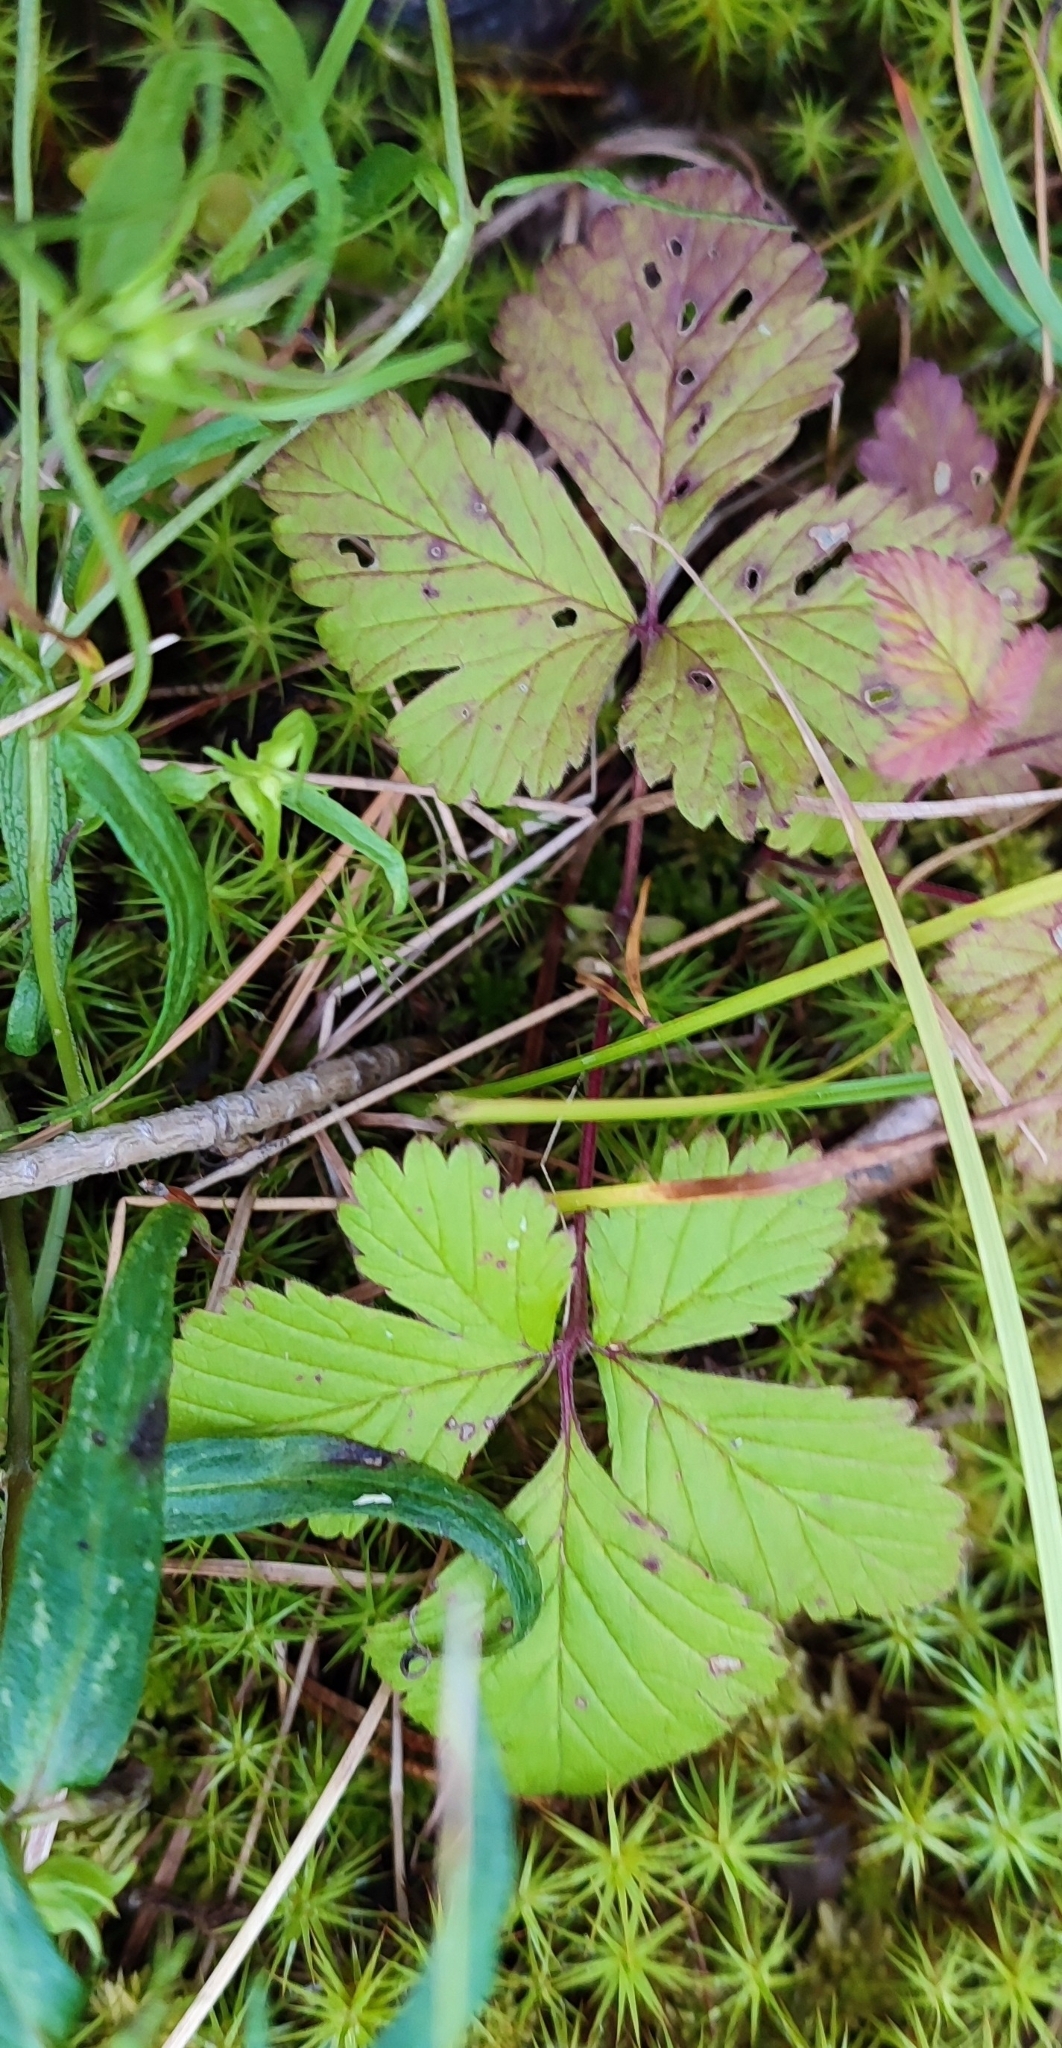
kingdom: Plantae
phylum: Tracheophyta
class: Magnoliopsida
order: Rosales
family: Rosaceae
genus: Rubus
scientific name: Rubus arcticus
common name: Arctic bramble
